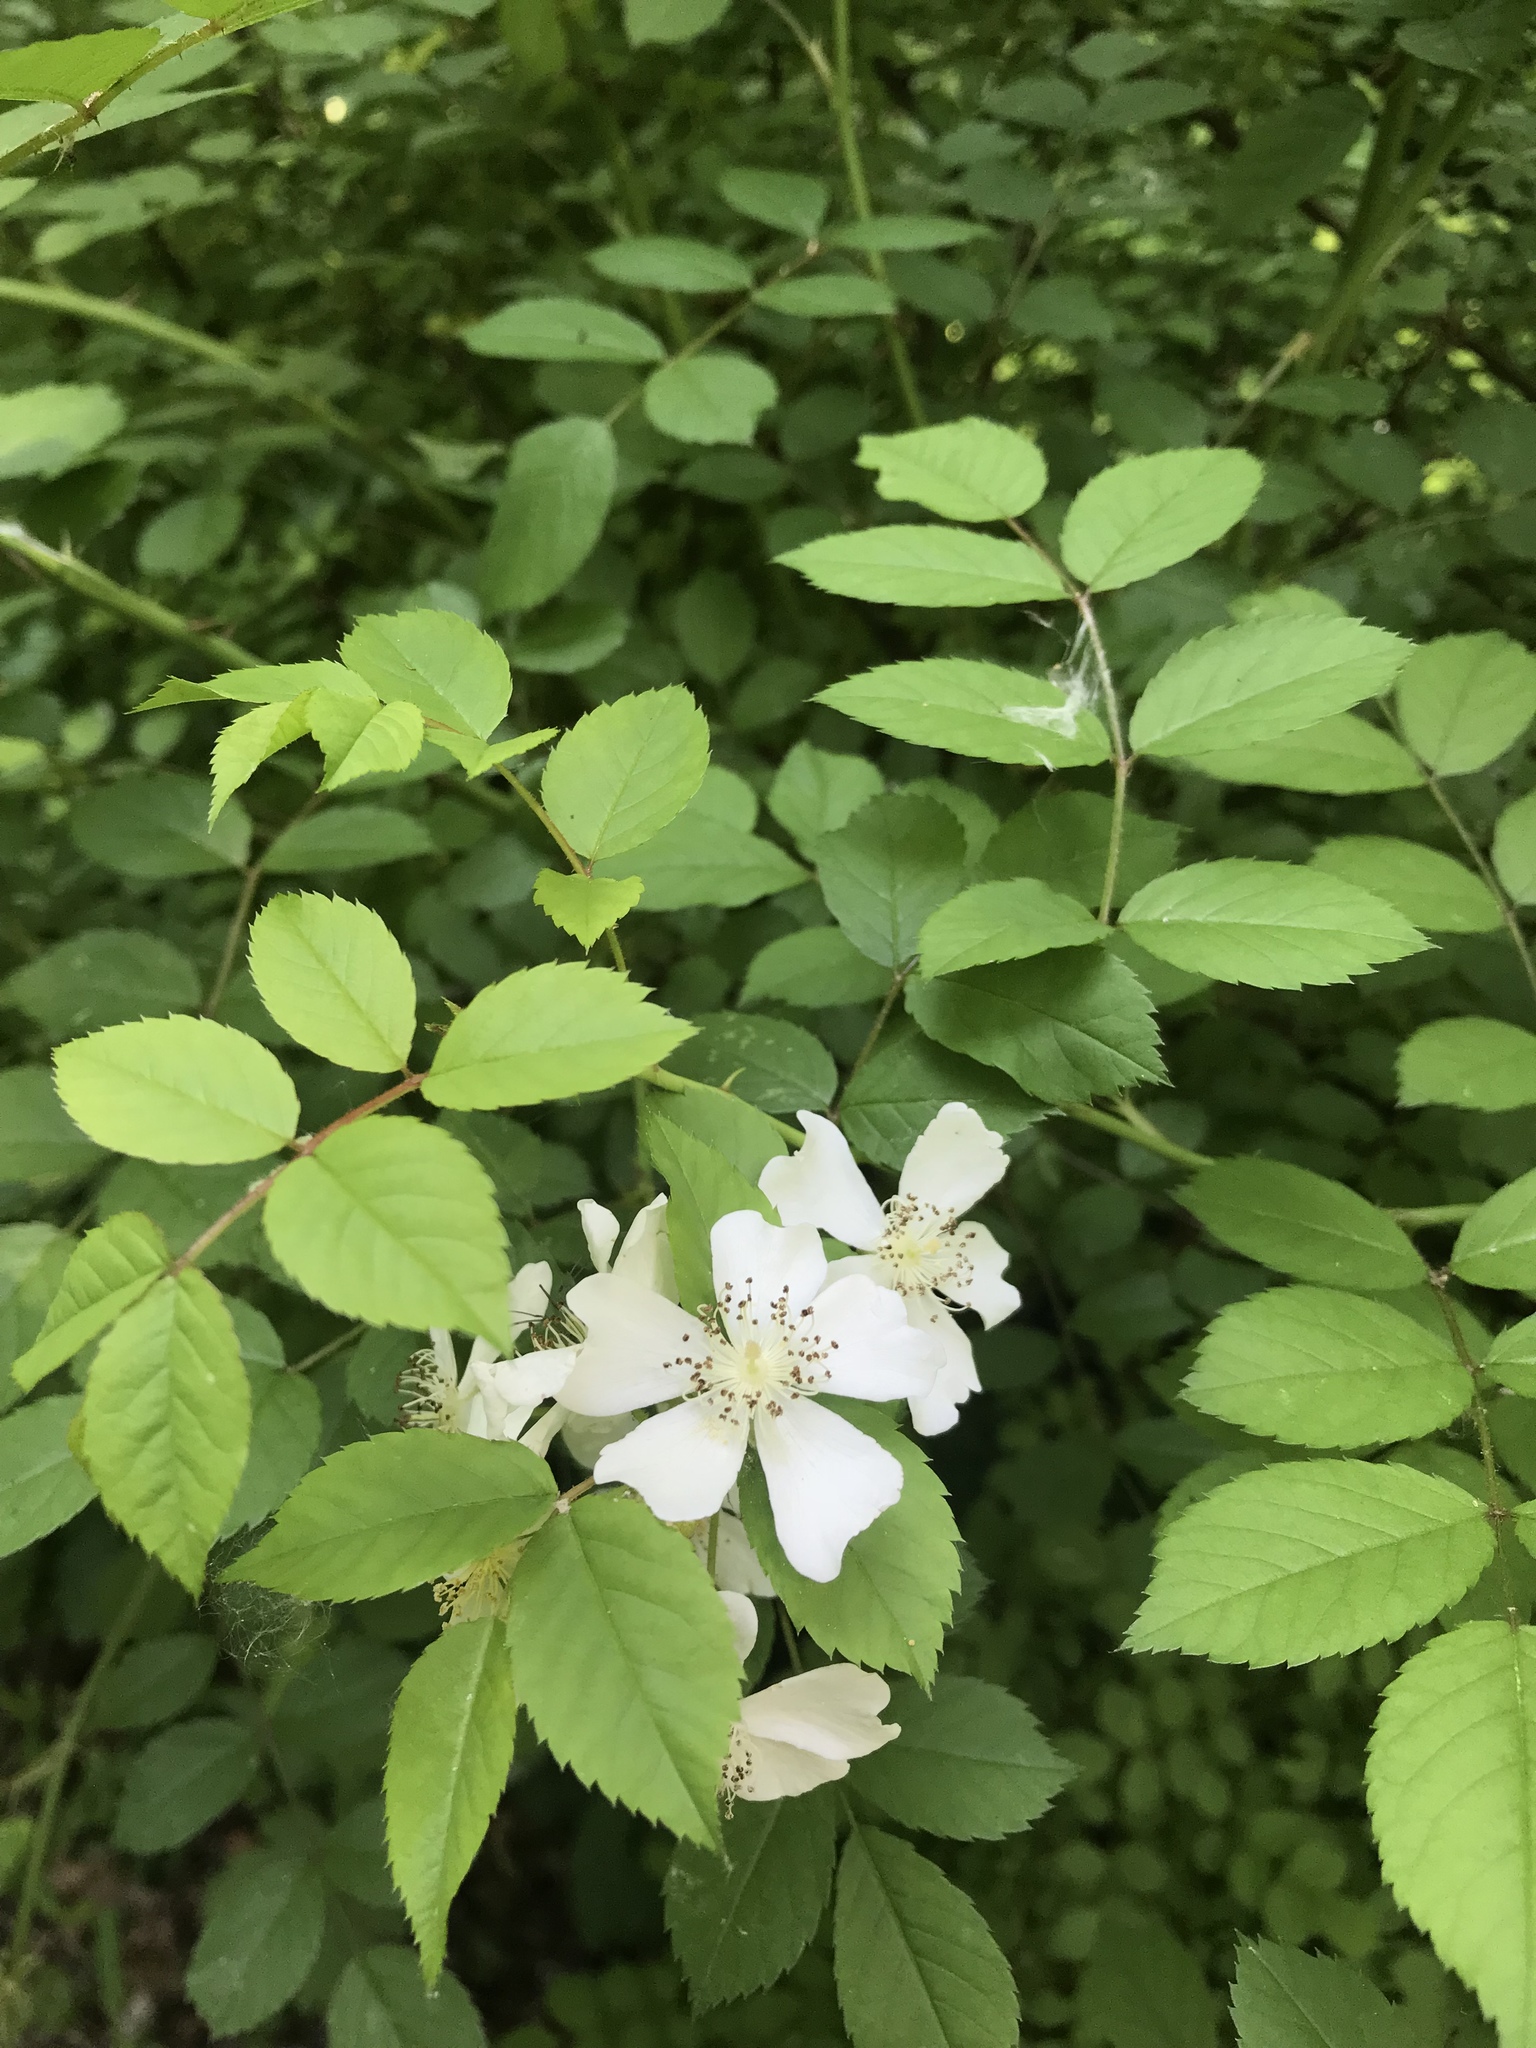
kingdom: Plantae
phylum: Tracheophyta
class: Magnoliopsida
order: Rosales
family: Rosaceae
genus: Rosa
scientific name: Rosa multiflora
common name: Multiflora rose
